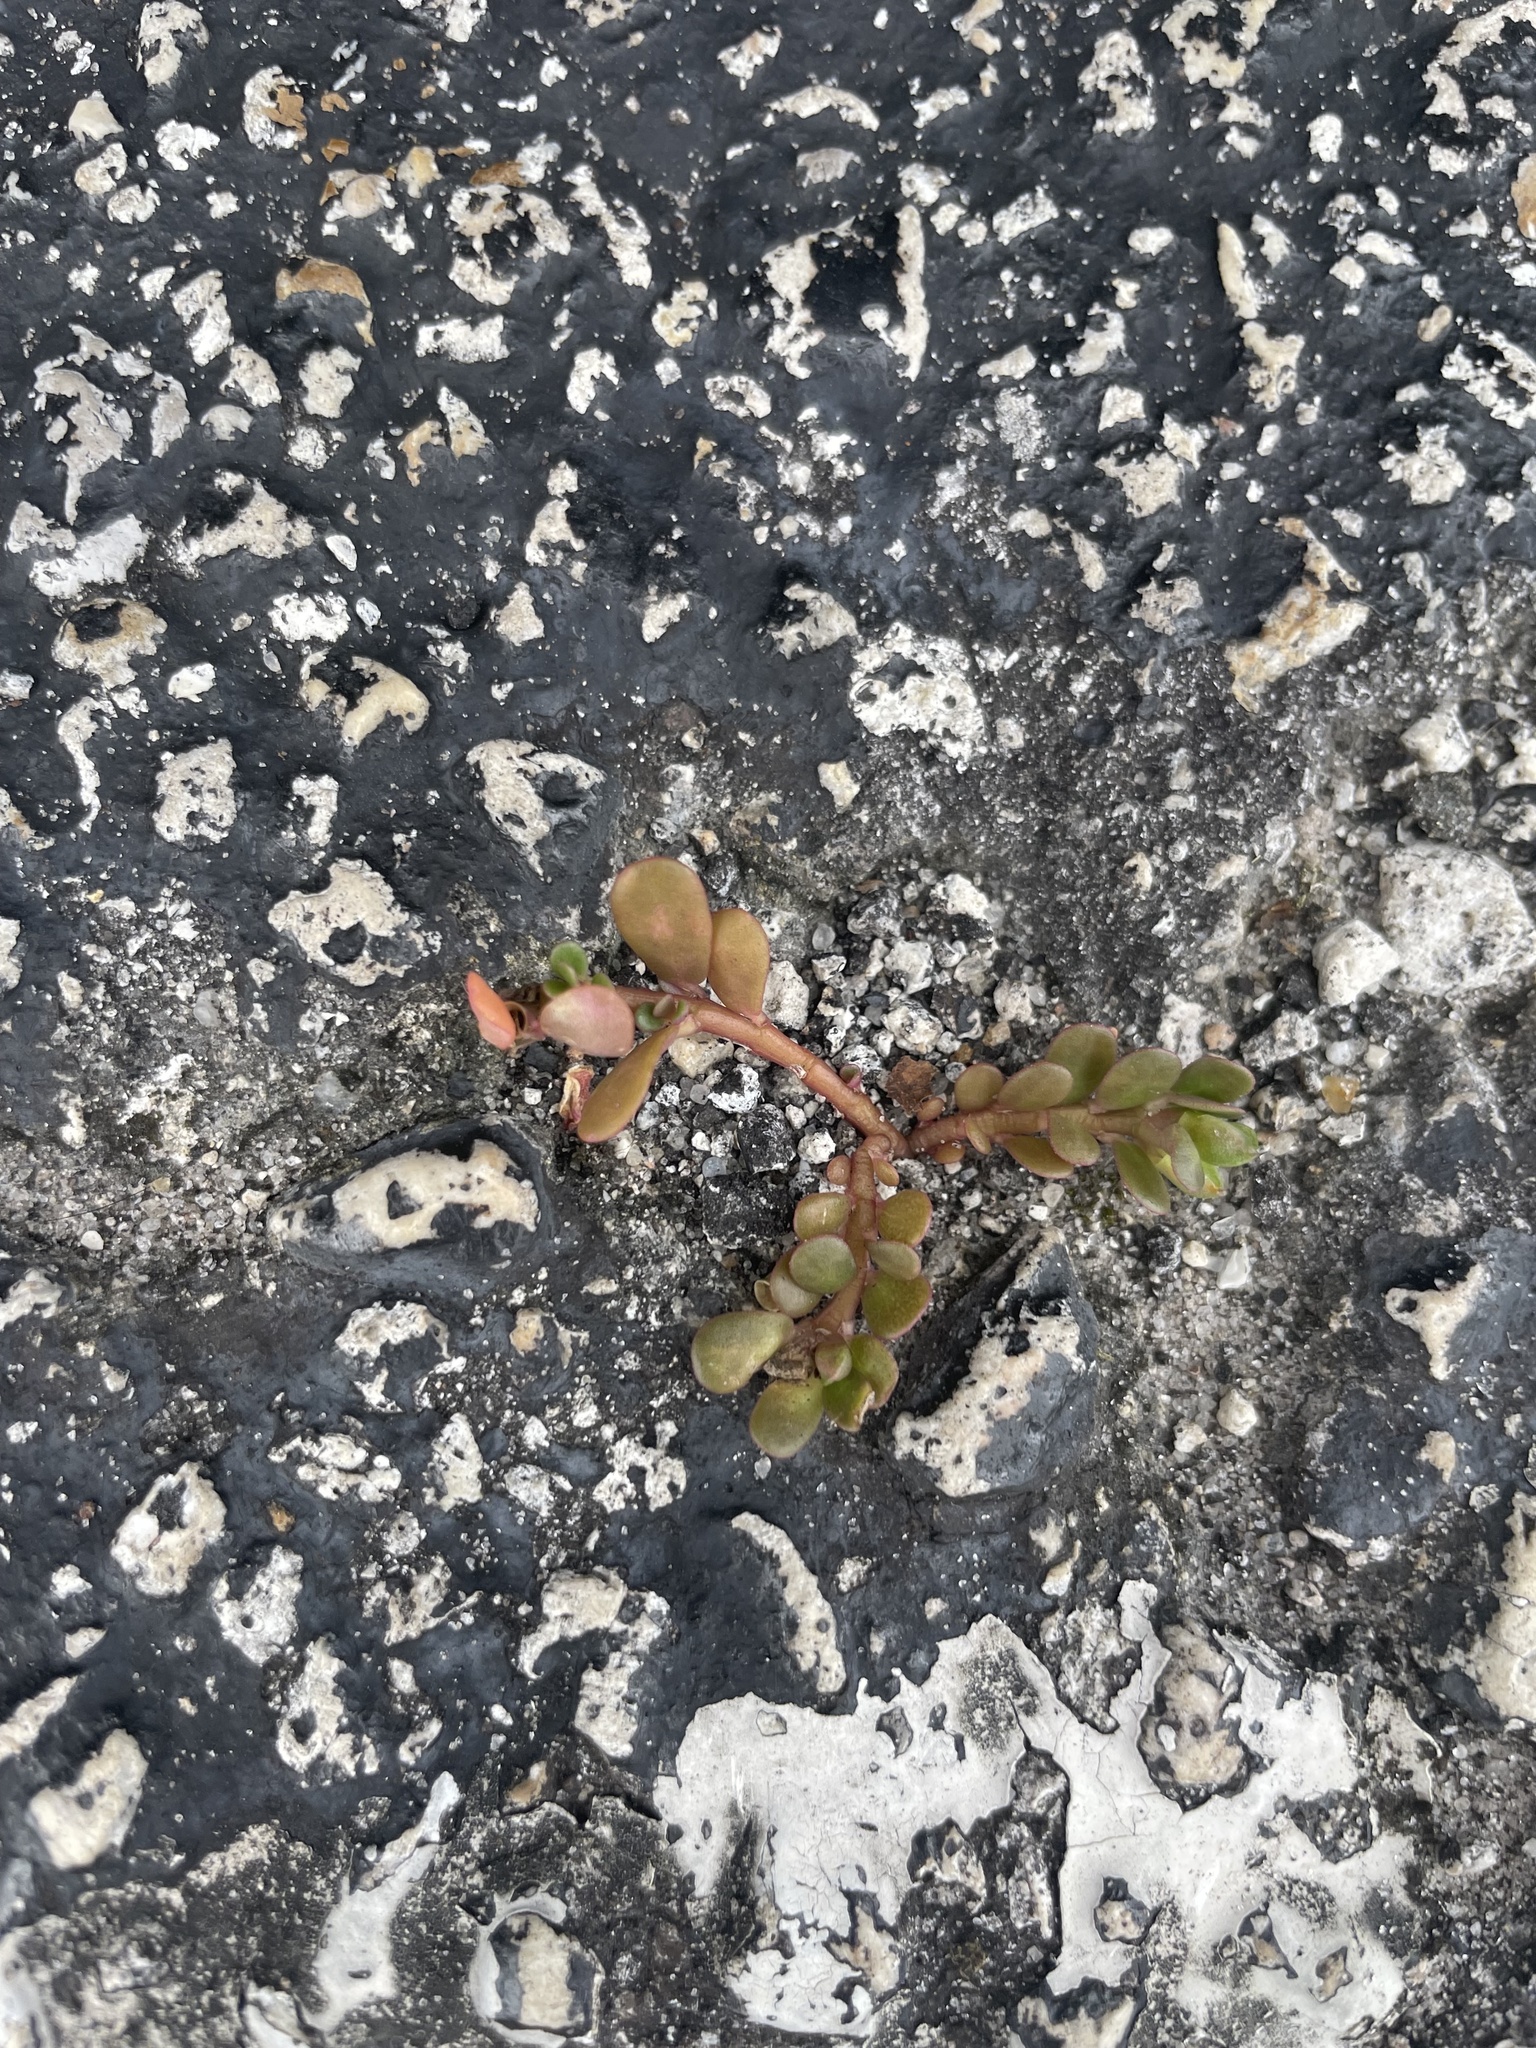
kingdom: Plantae
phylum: Tracheophyta
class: Magnoliopsida
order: Caryophyllales
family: Portulacaceae
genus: Portulaca
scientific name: Portulaca oleracea
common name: Common purslane
